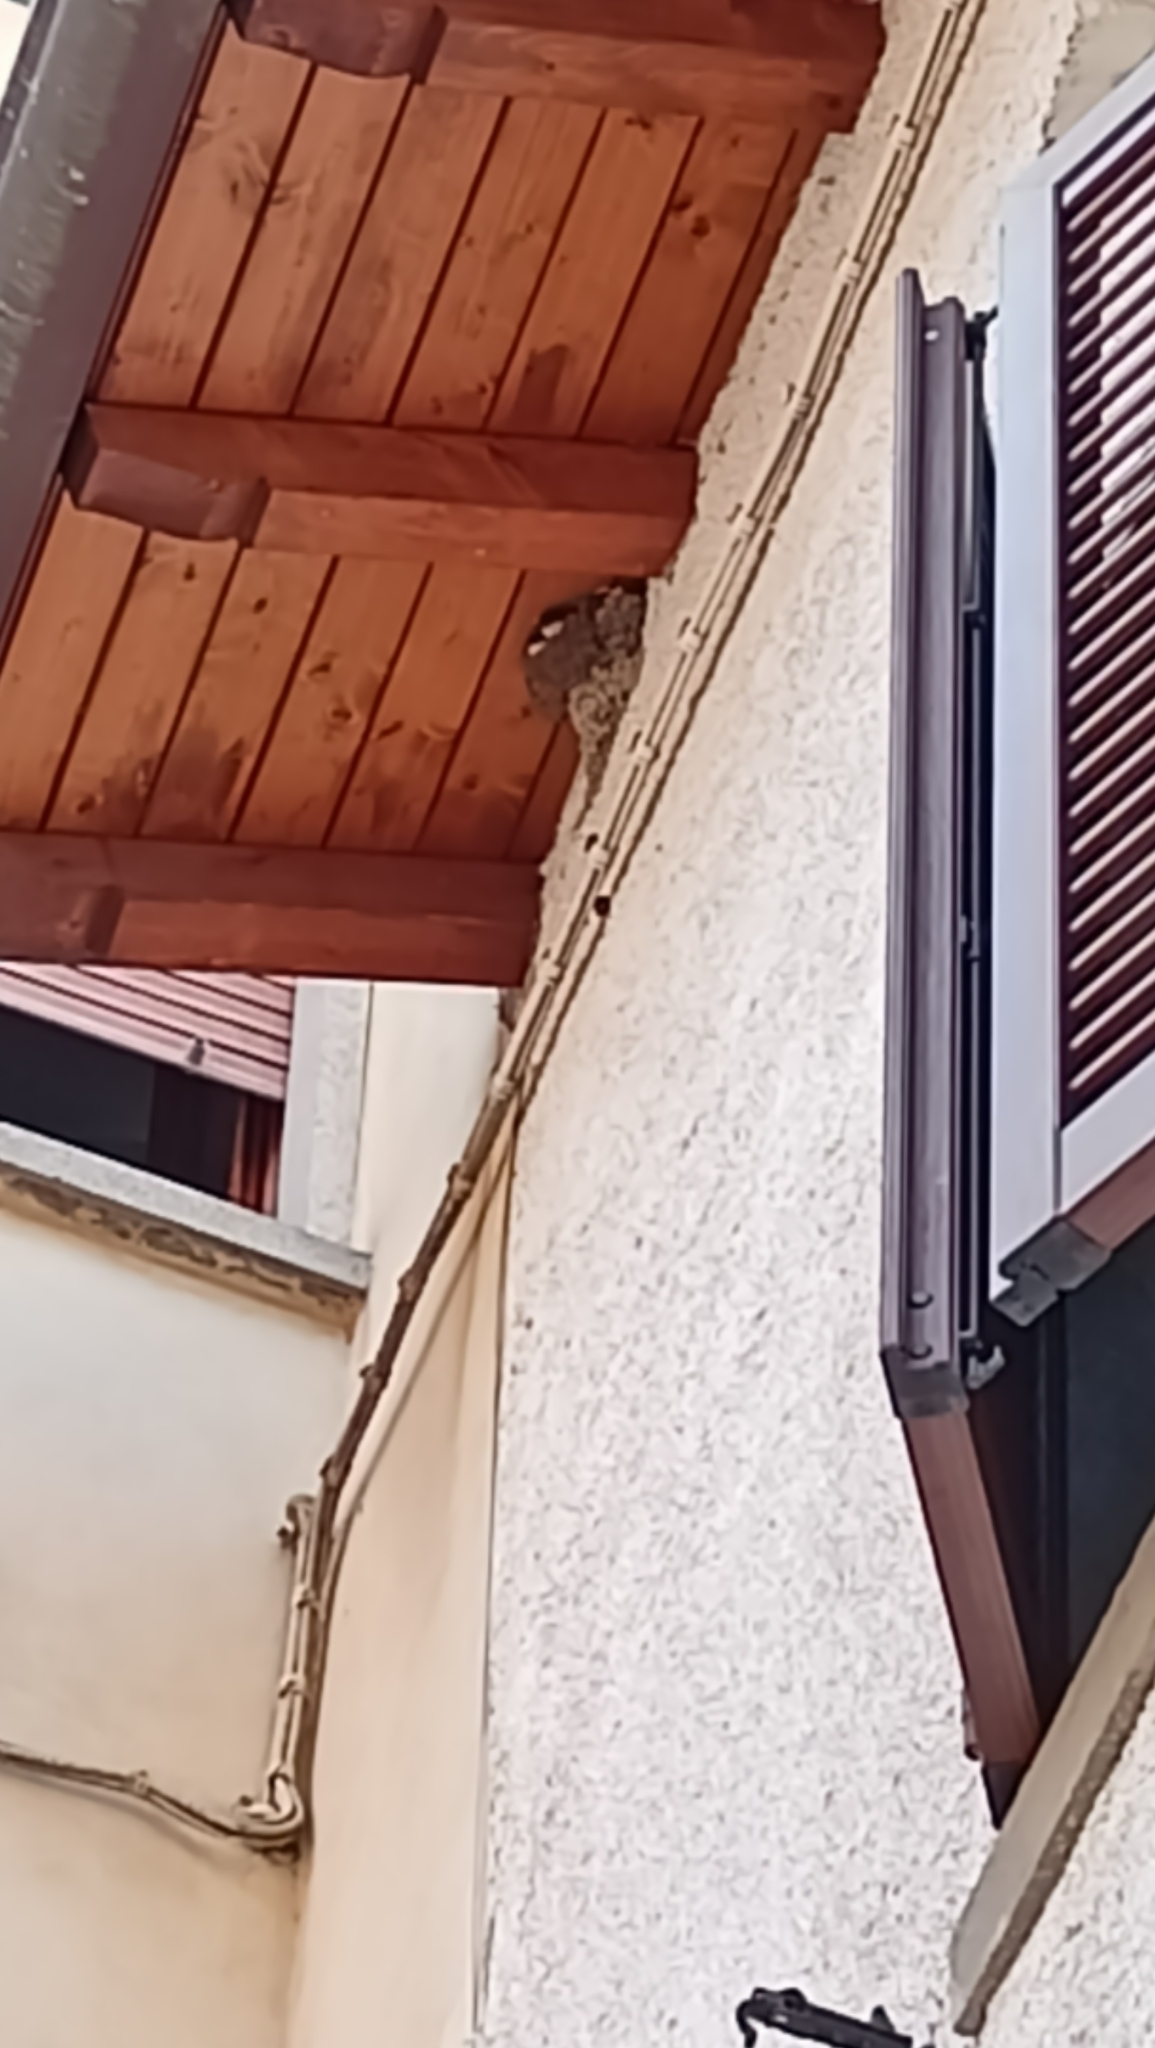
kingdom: Animalia
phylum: Chordata
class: Aves
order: Passeriformes
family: Hirundinidae
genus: Delichon
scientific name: Delichon urbicum
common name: Common house martin
